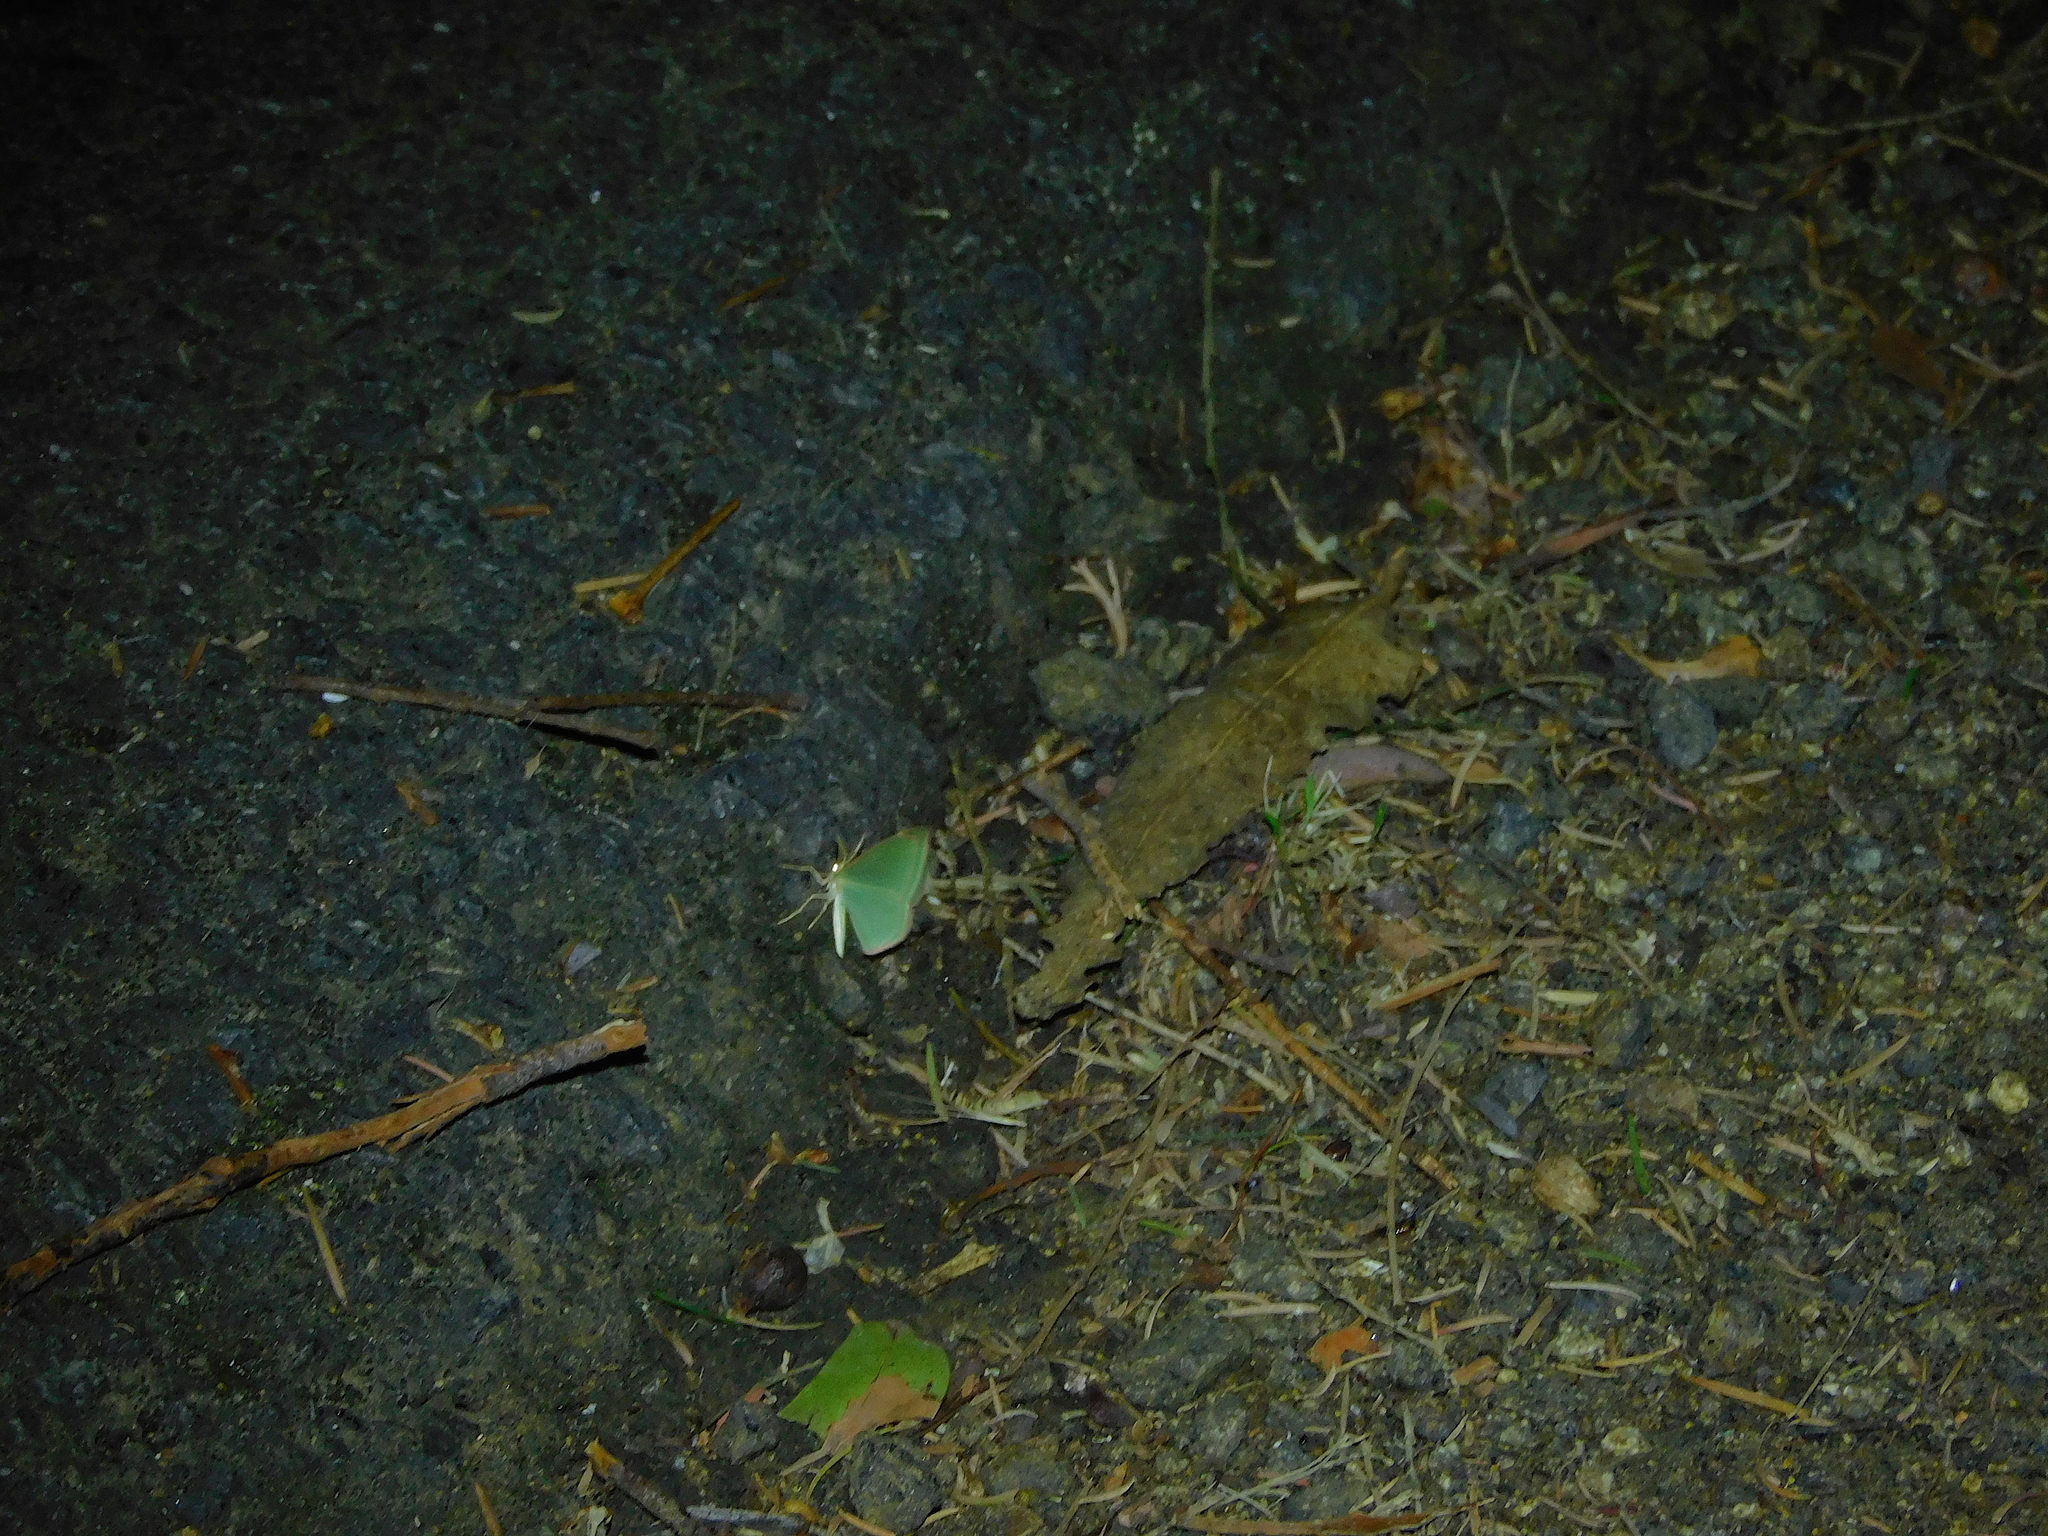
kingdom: Animalia
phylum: Arthropoda
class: Insecta
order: Lepidoptera
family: Geometridae
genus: Prasinocyma
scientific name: Prasinocyma semicrocea
